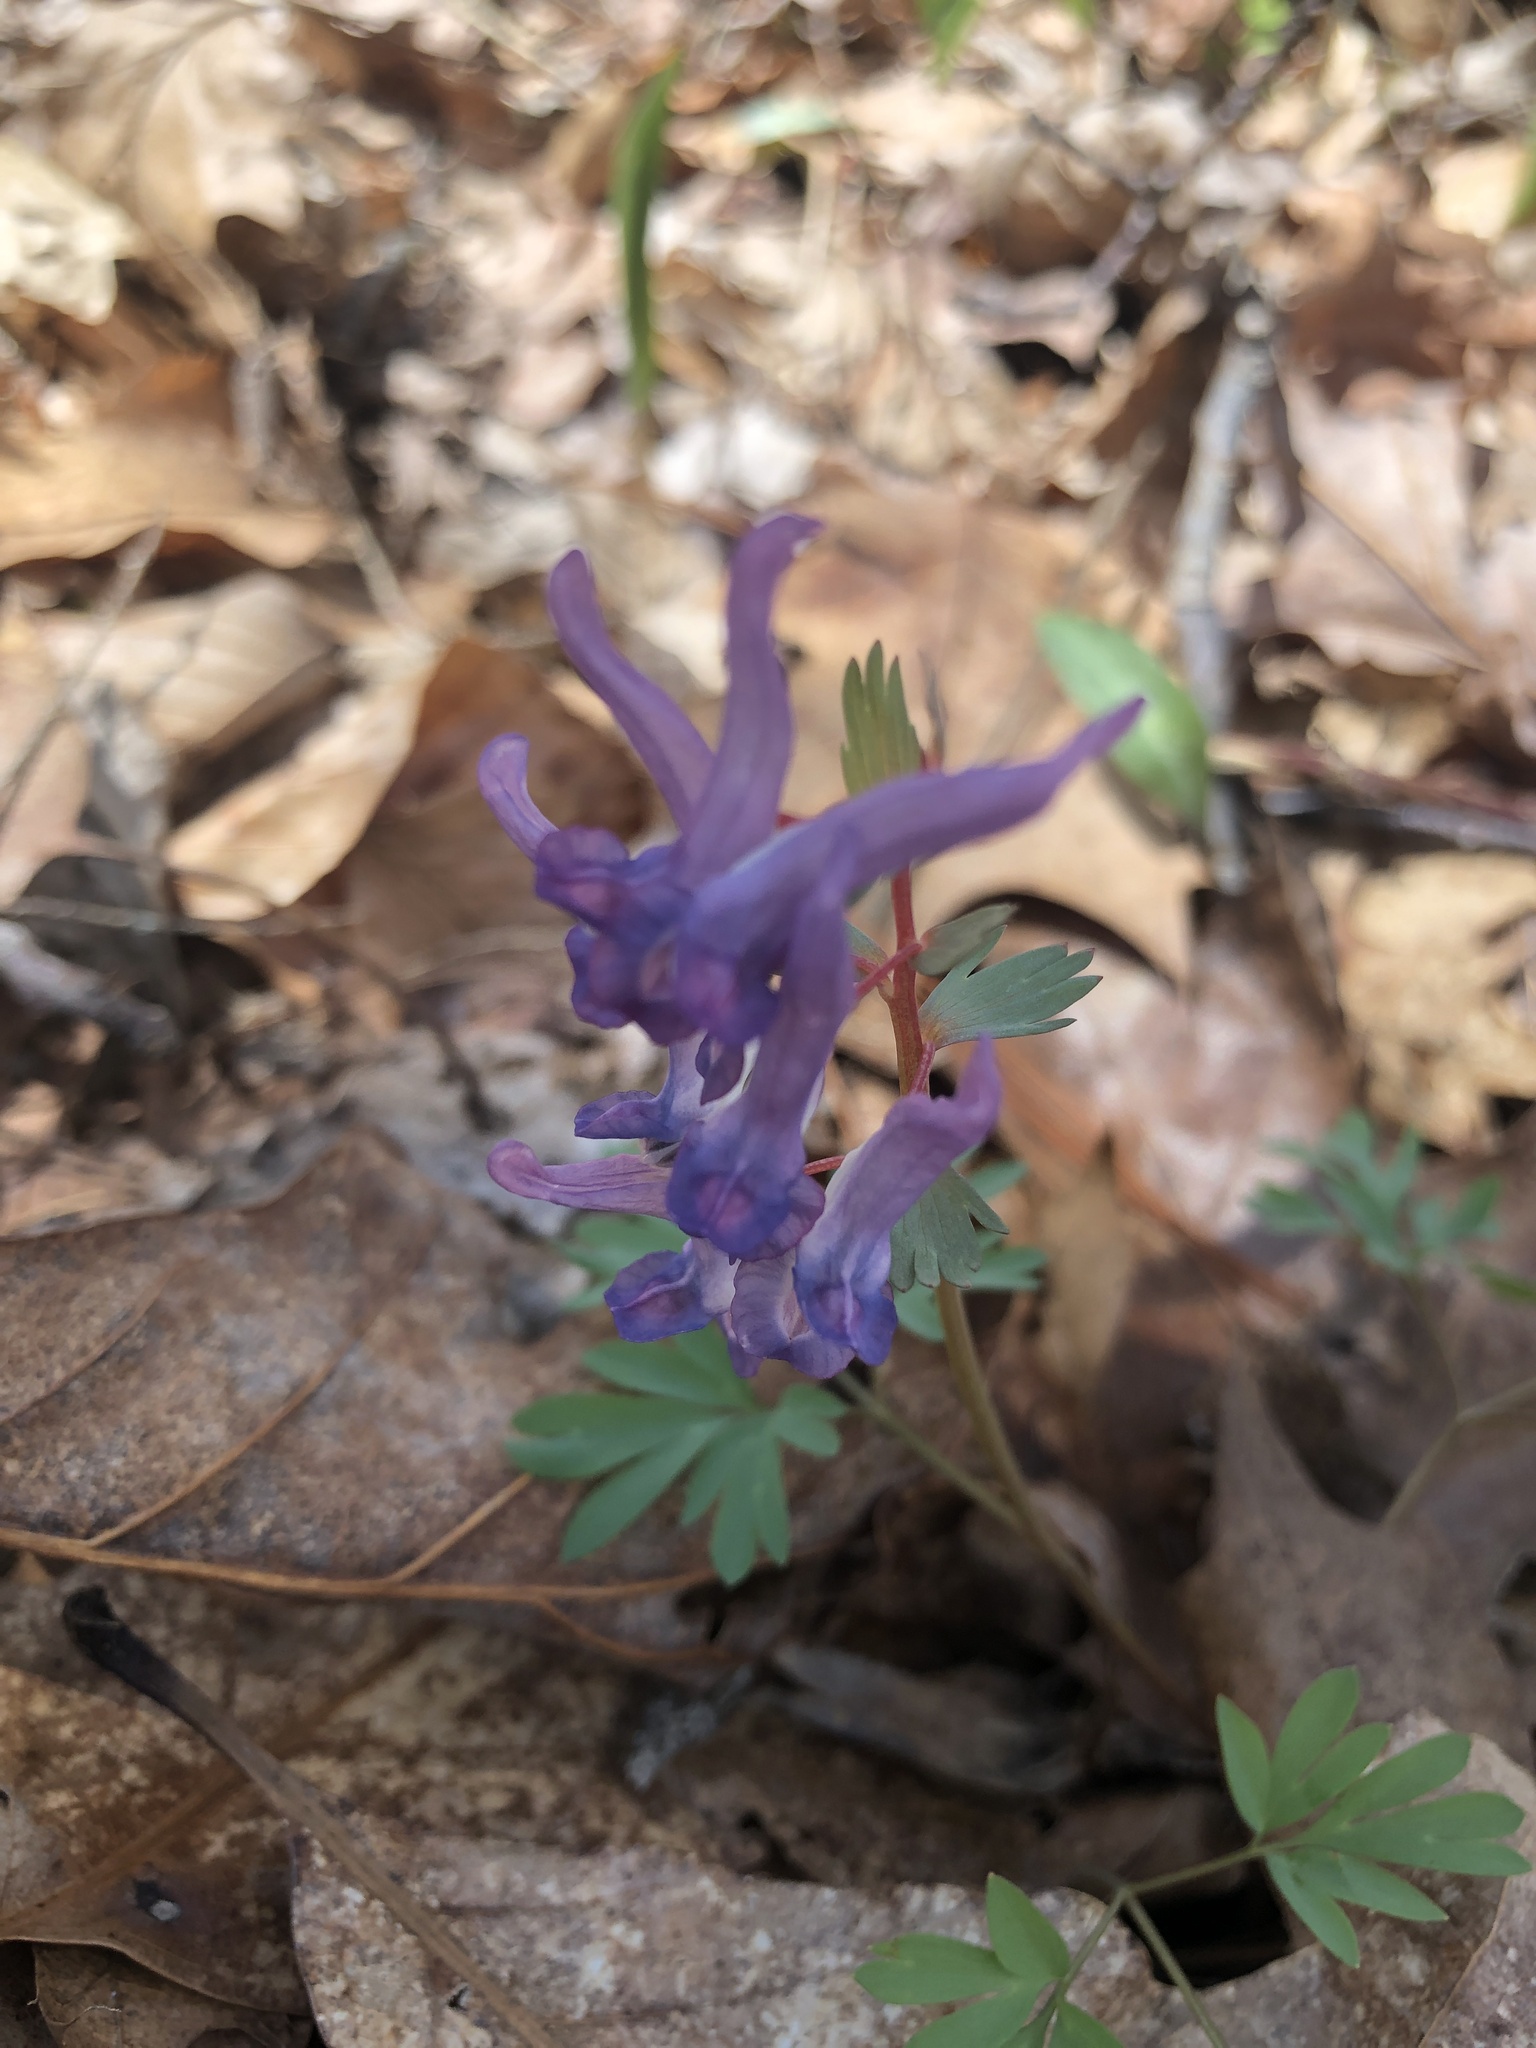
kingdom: Plantae
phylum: Tracheophyta
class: Magnoliopsida
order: Ranunculales
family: Papaveraceae
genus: Corydalis
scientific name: Corydalis solida
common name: Bird-in-a-bush
